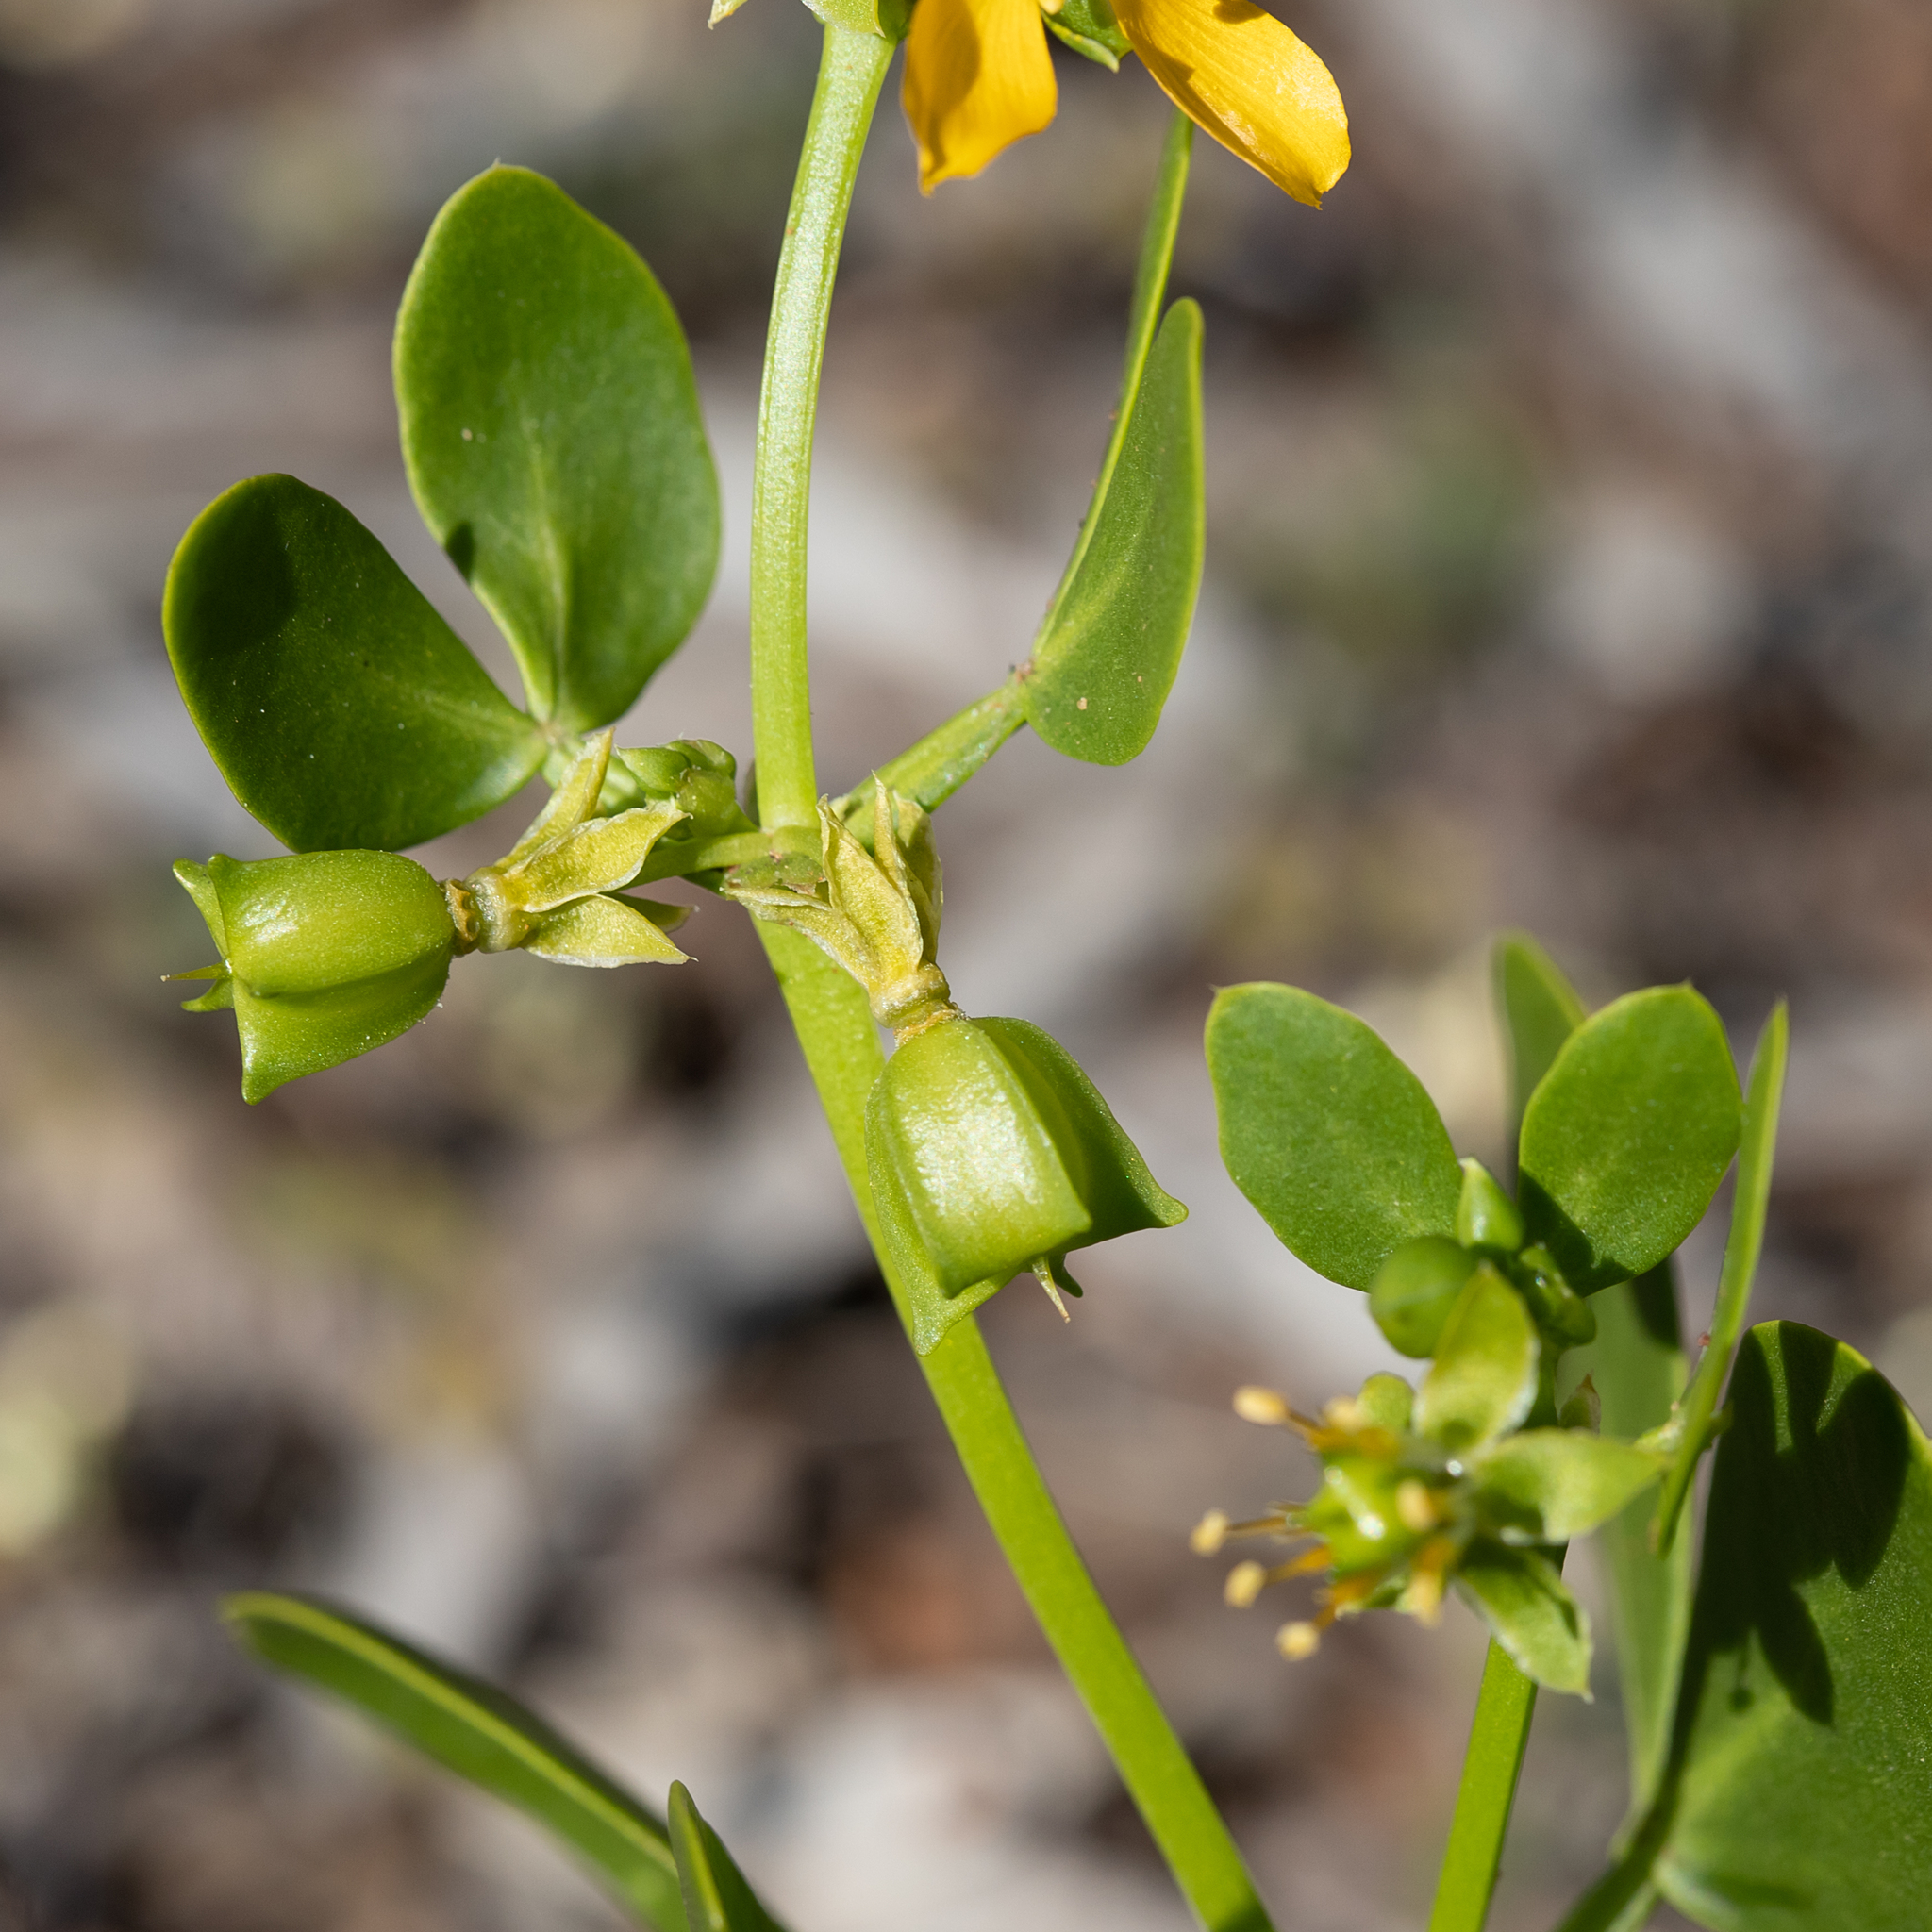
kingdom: Plantae
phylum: Tracheophyta
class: Magnoliopsida
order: Zygophyllales
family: Zygophyllaceae
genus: Roepera
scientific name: Roepera apiculata
